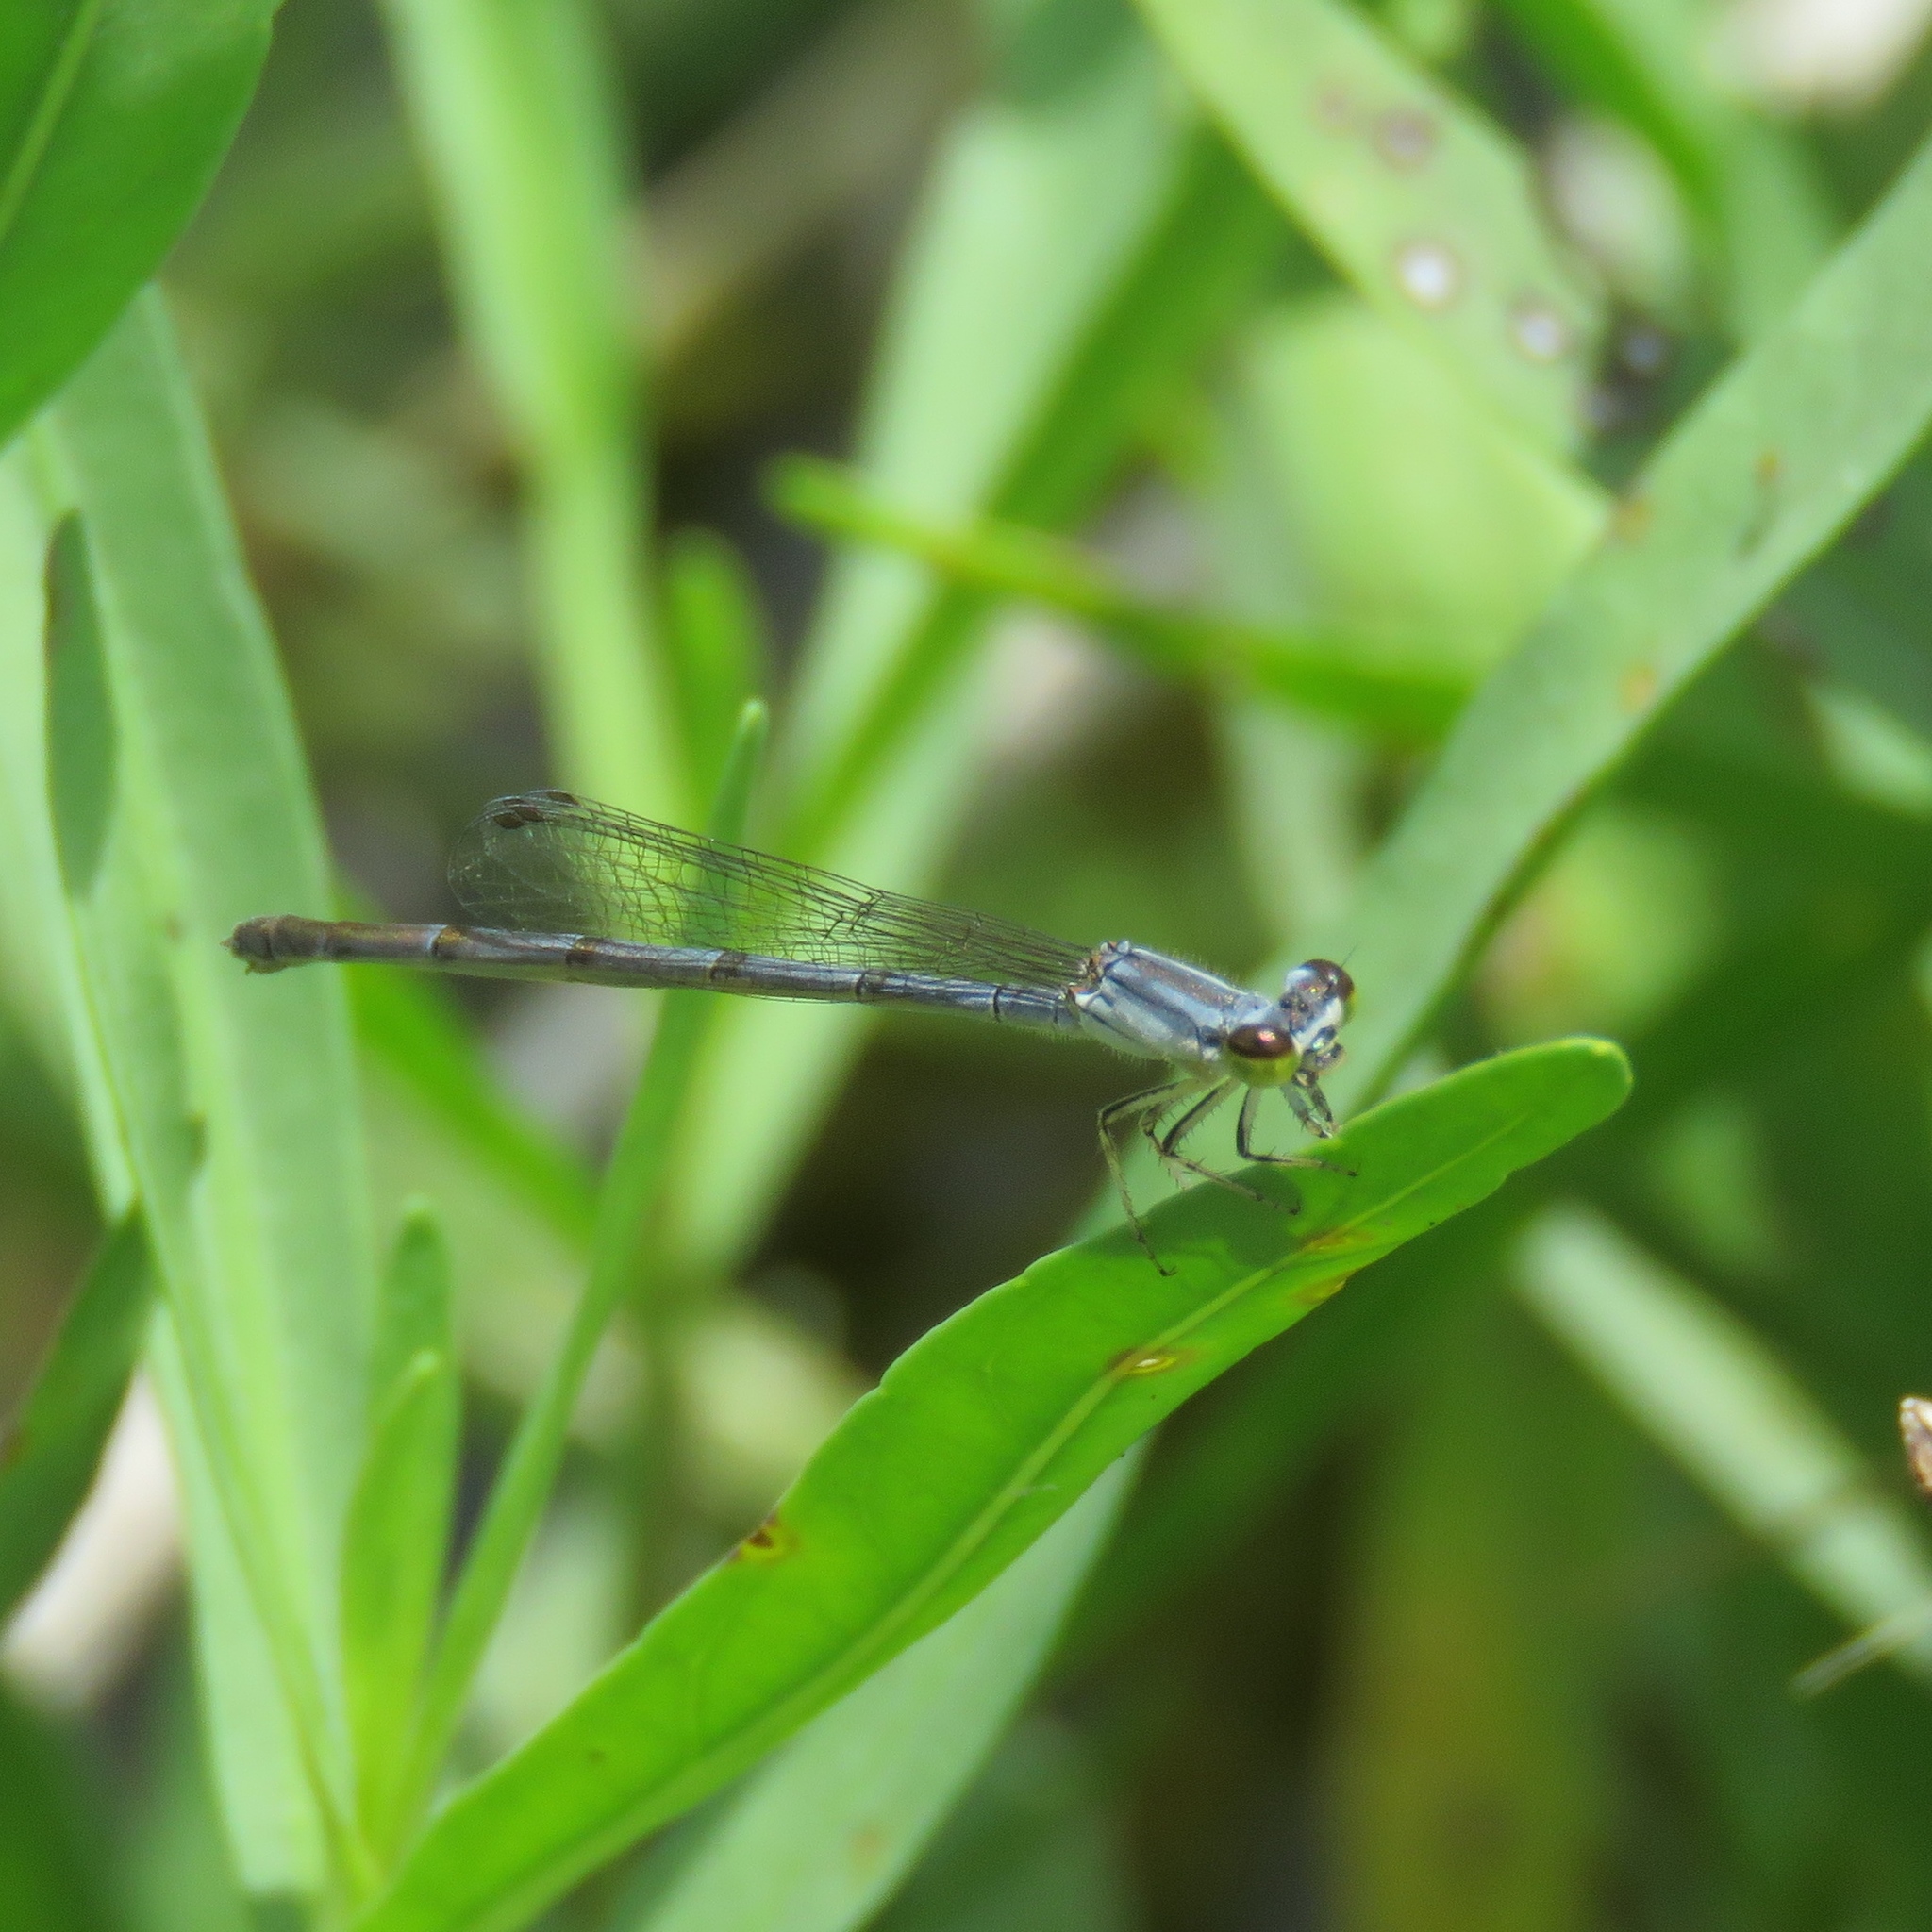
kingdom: Animalia
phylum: Arthropoda
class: Insecta
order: Odonata
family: Coenagrionidae
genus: Ischnura
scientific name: Ischnura posita
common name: Fragile forktail
